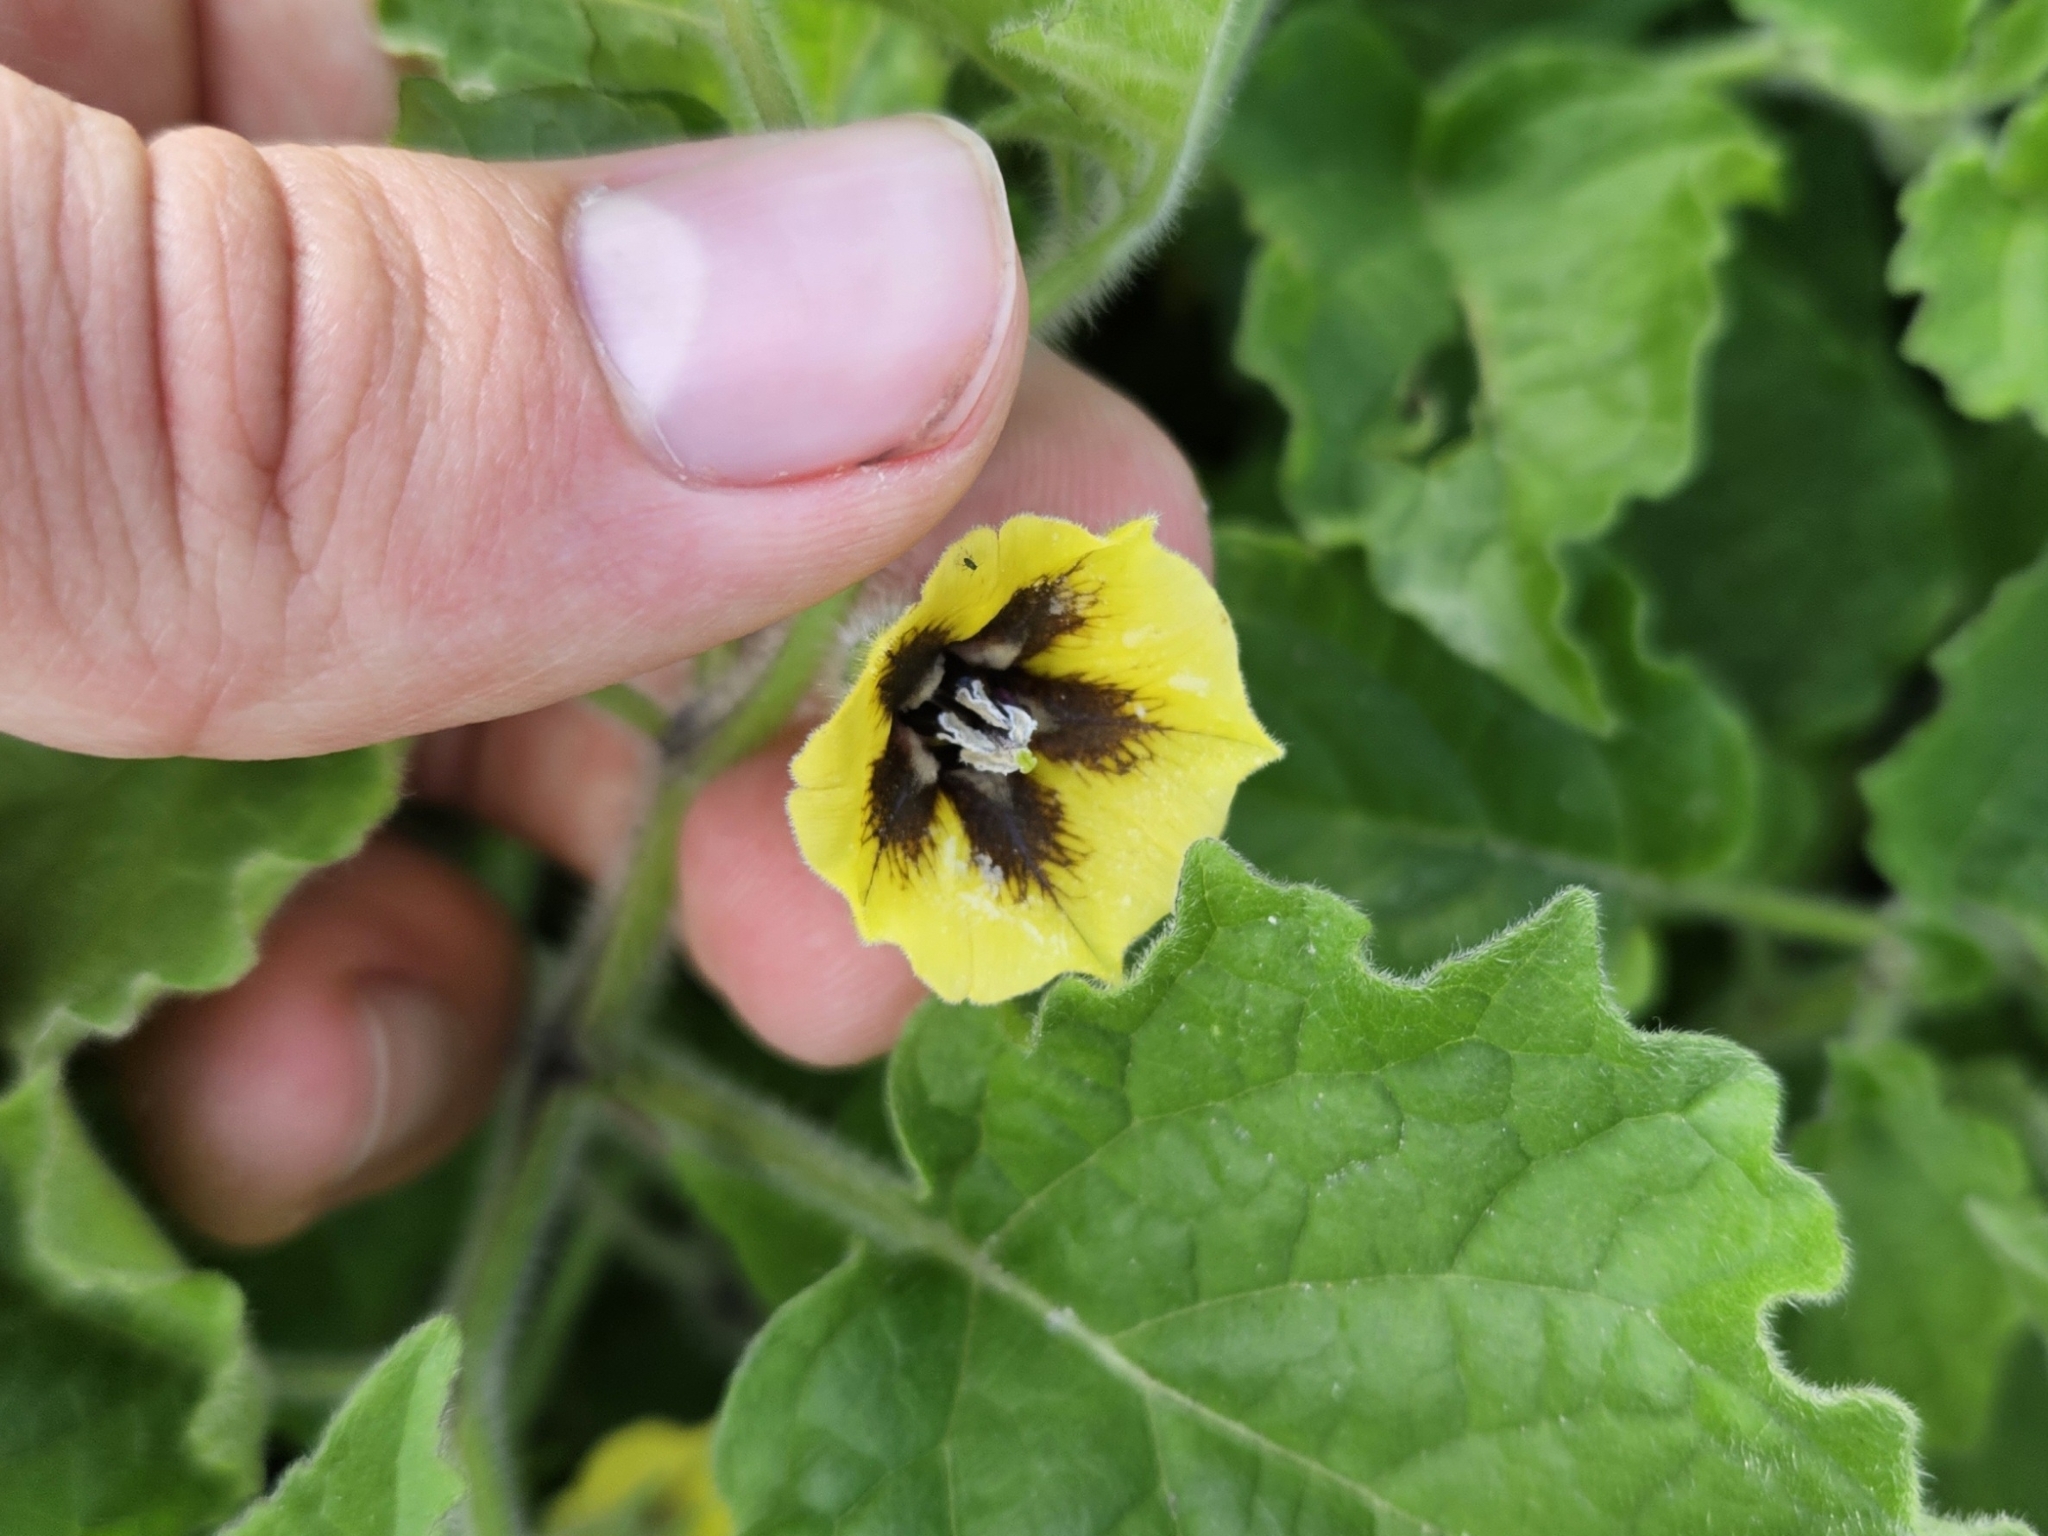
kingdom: Plantae
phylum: Tracheophyta
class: Magnoliopsida
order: Solanales
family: Solanaceae
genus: Physalis
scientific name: Physalis heterophylla
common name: Clammy ground-cherry
